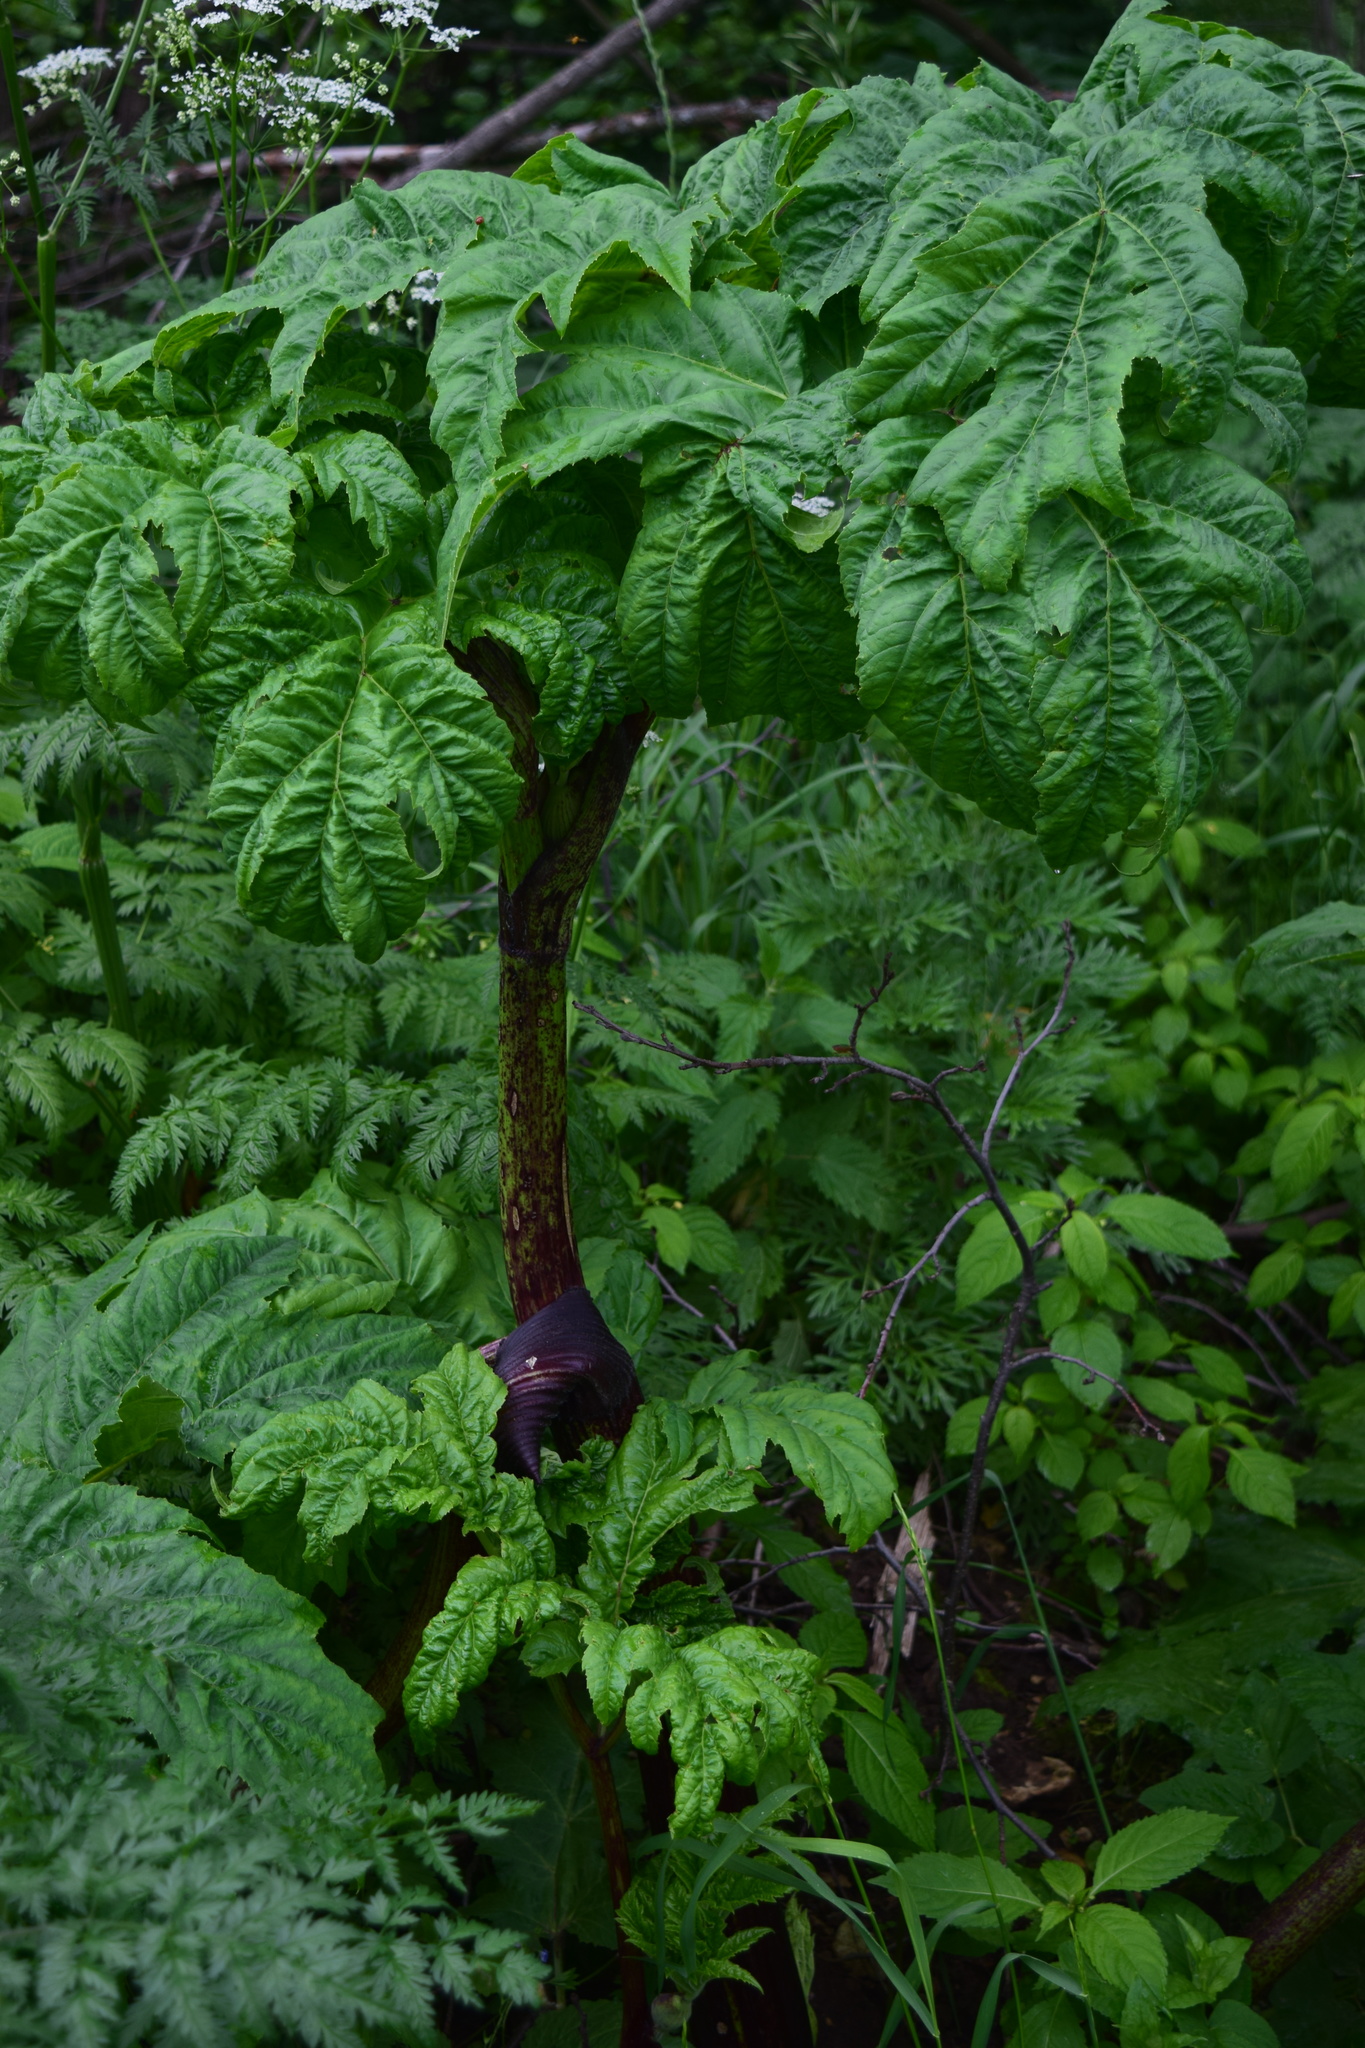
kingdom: Plantae
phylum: Tracheophyta
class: Magnoliopsida
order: Apiales
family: Apiaceae
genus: Heracleum
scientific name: Heracleum sosnowskyi
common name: Sosnowsky's hogweed
